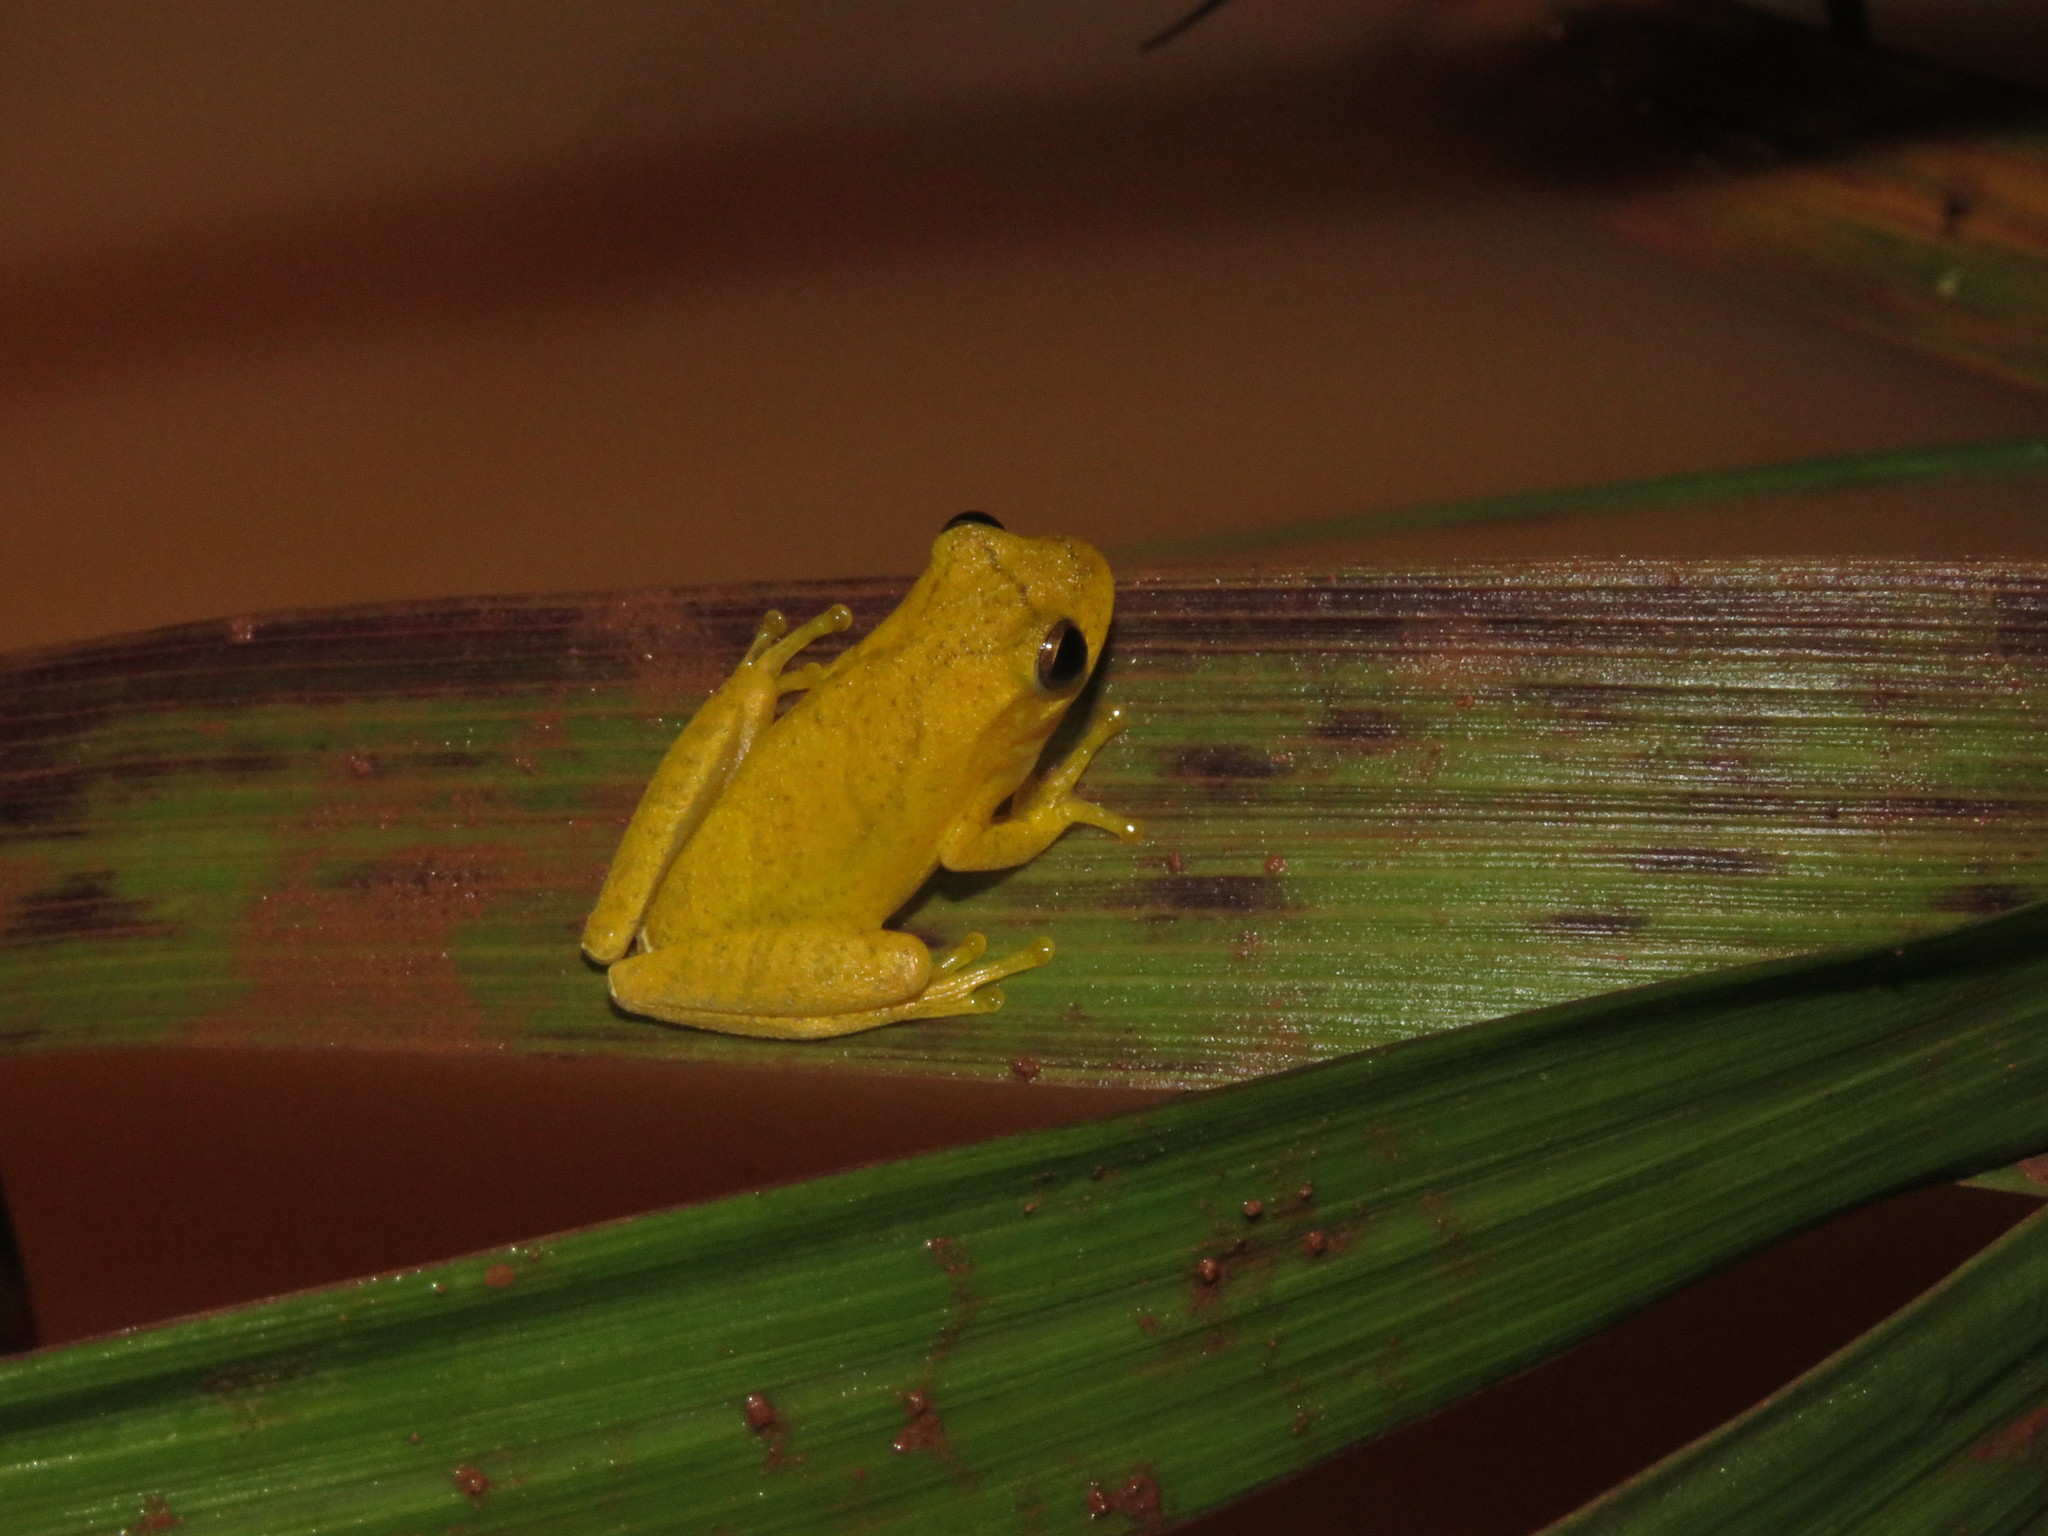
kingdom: Animalia
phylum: Chordata
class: Amphibia
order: Anura
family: Hylidae
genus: Dendropsophus
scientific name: Dendropsophus minutus
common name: Lesser treefrog
